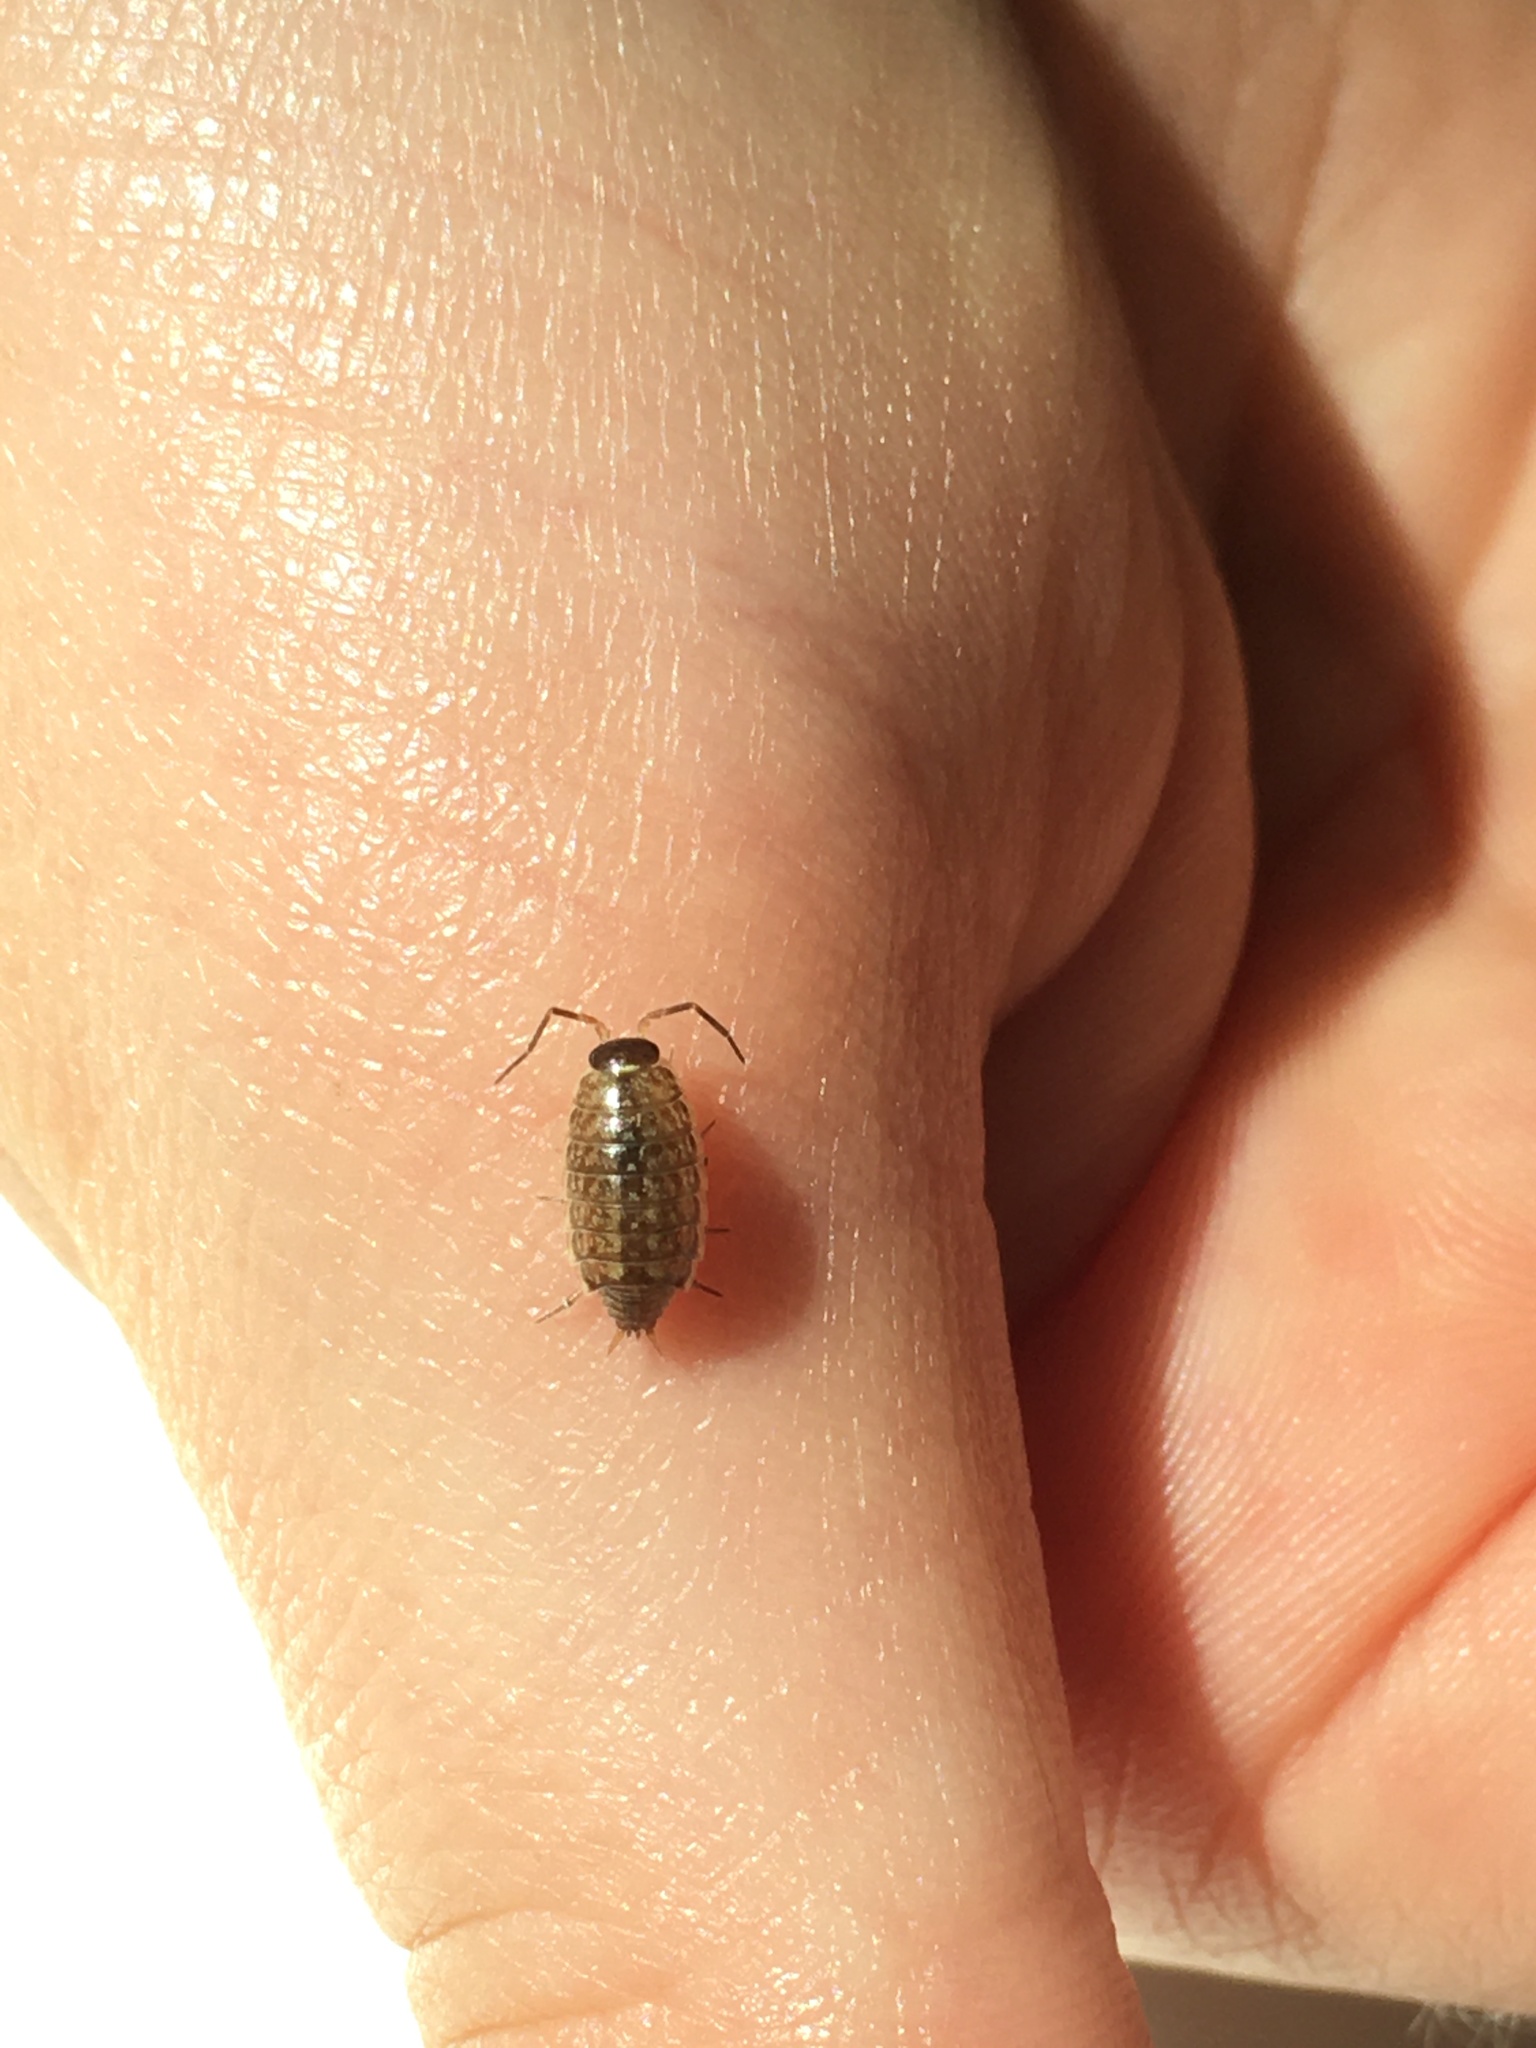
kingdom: Animalia
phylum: Arthropoda
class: Malacostraca
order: Isopoda
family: Philosciidae
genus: Philoscia
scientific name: Philoscia muscorum
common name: Common striped woodlouse
